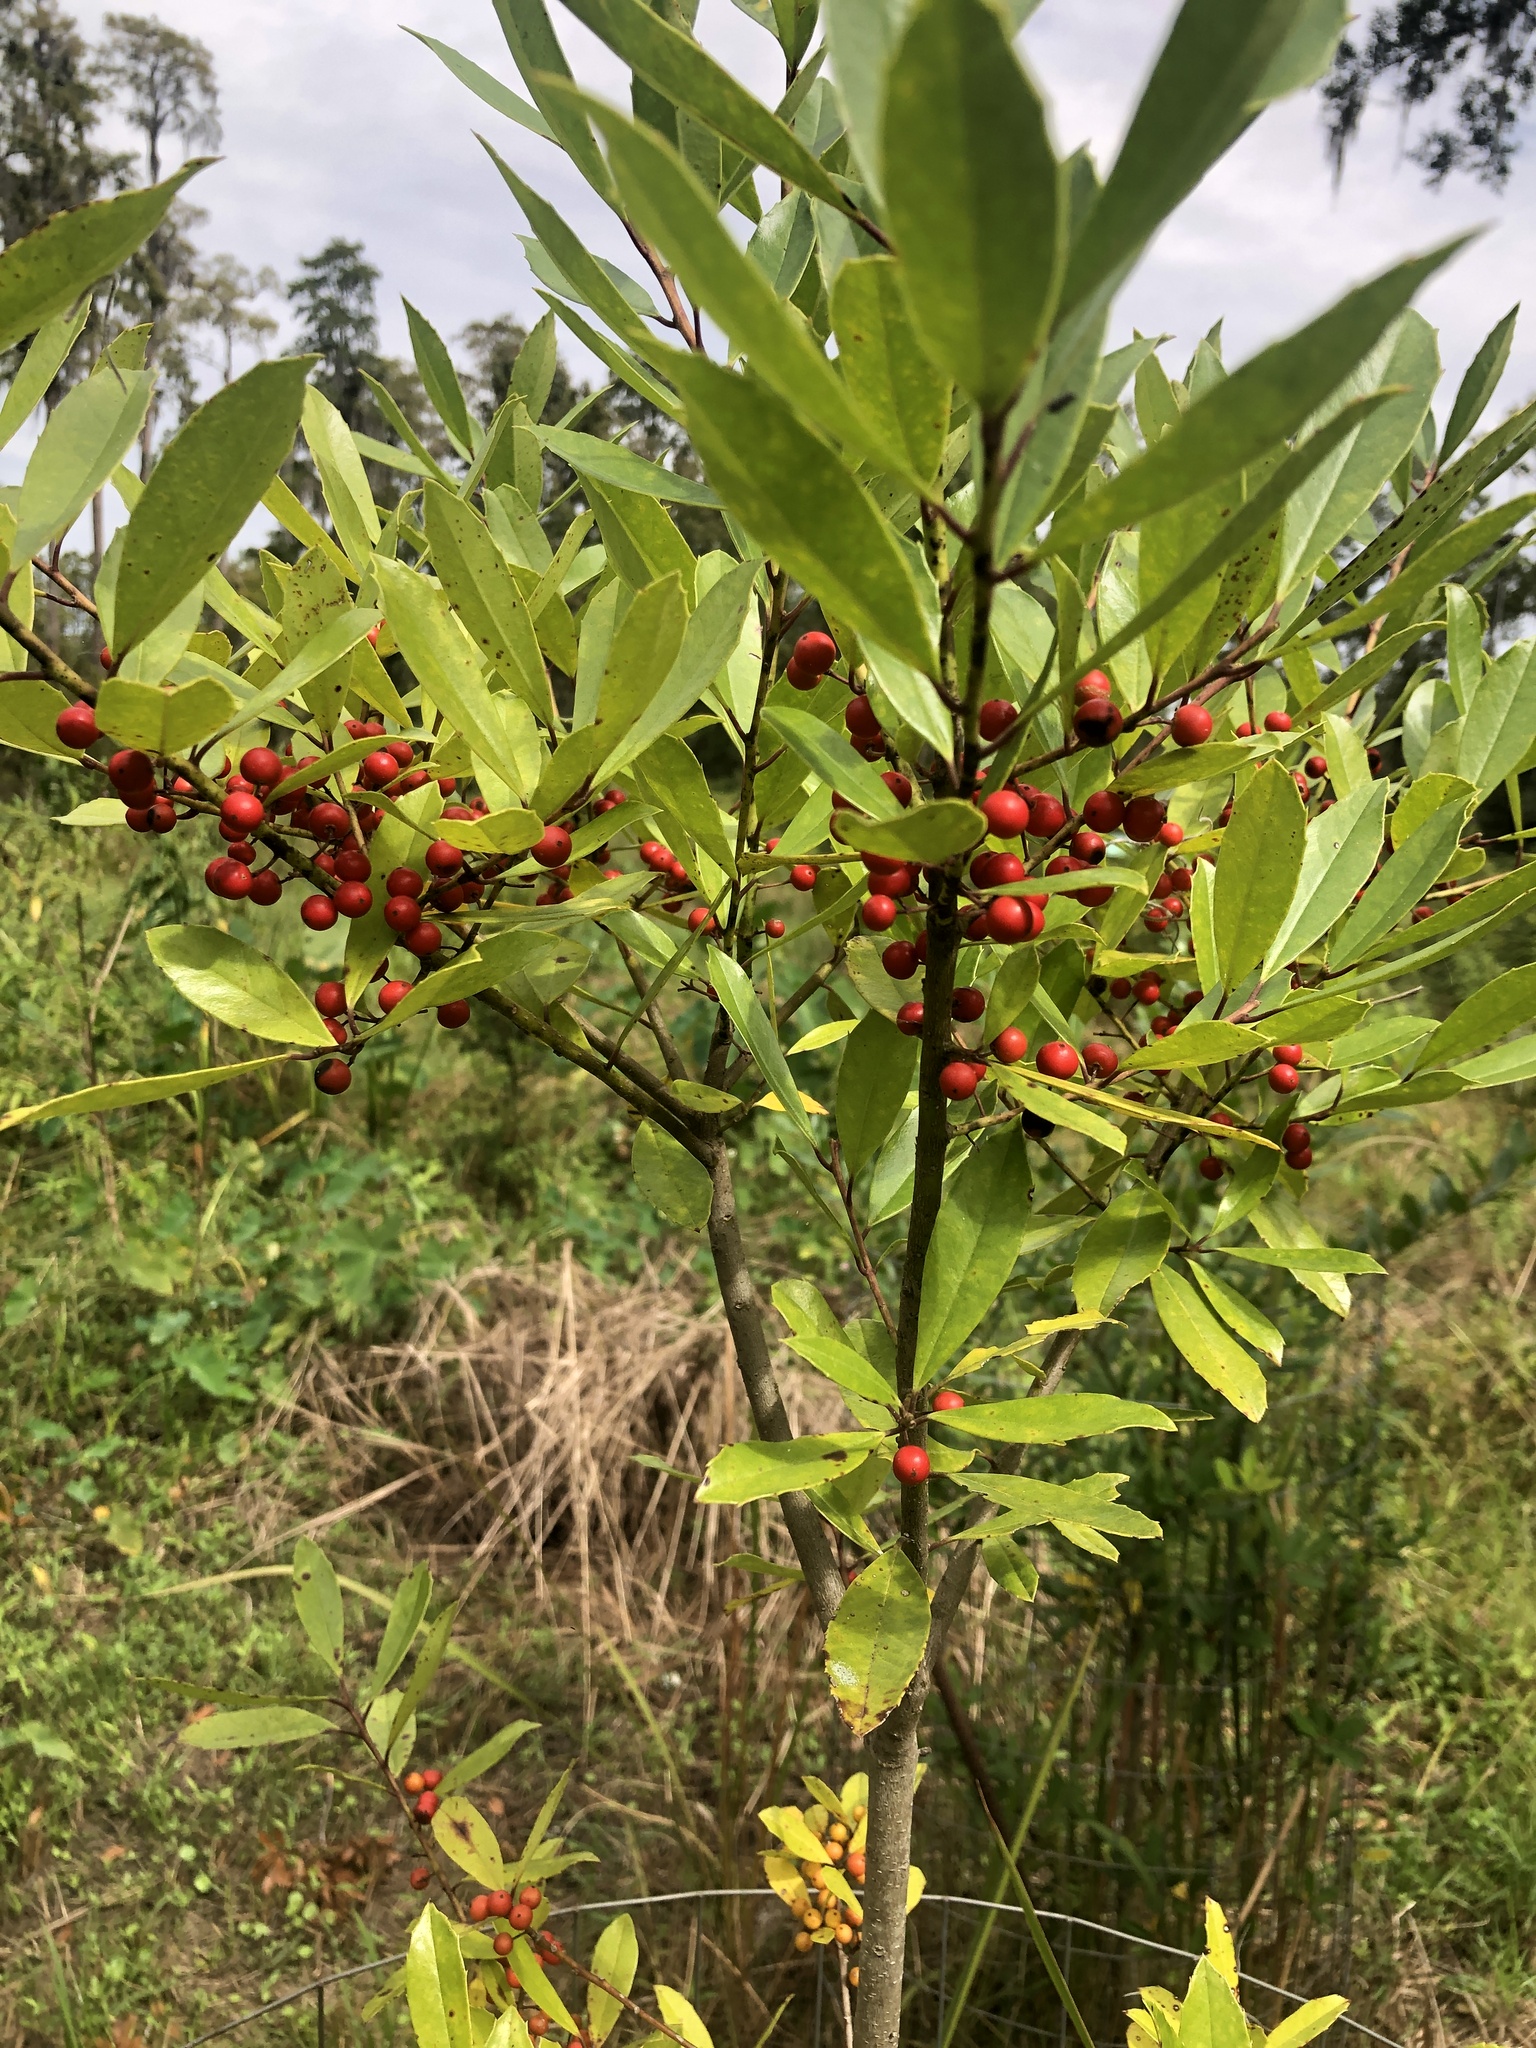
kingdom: Plantae
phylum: Tracheophyta
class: Magnoliopsida
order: Aquifoliales
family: Aquifoliaceae
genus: Ilex
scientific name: Ilex cassine
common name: Dahoon
